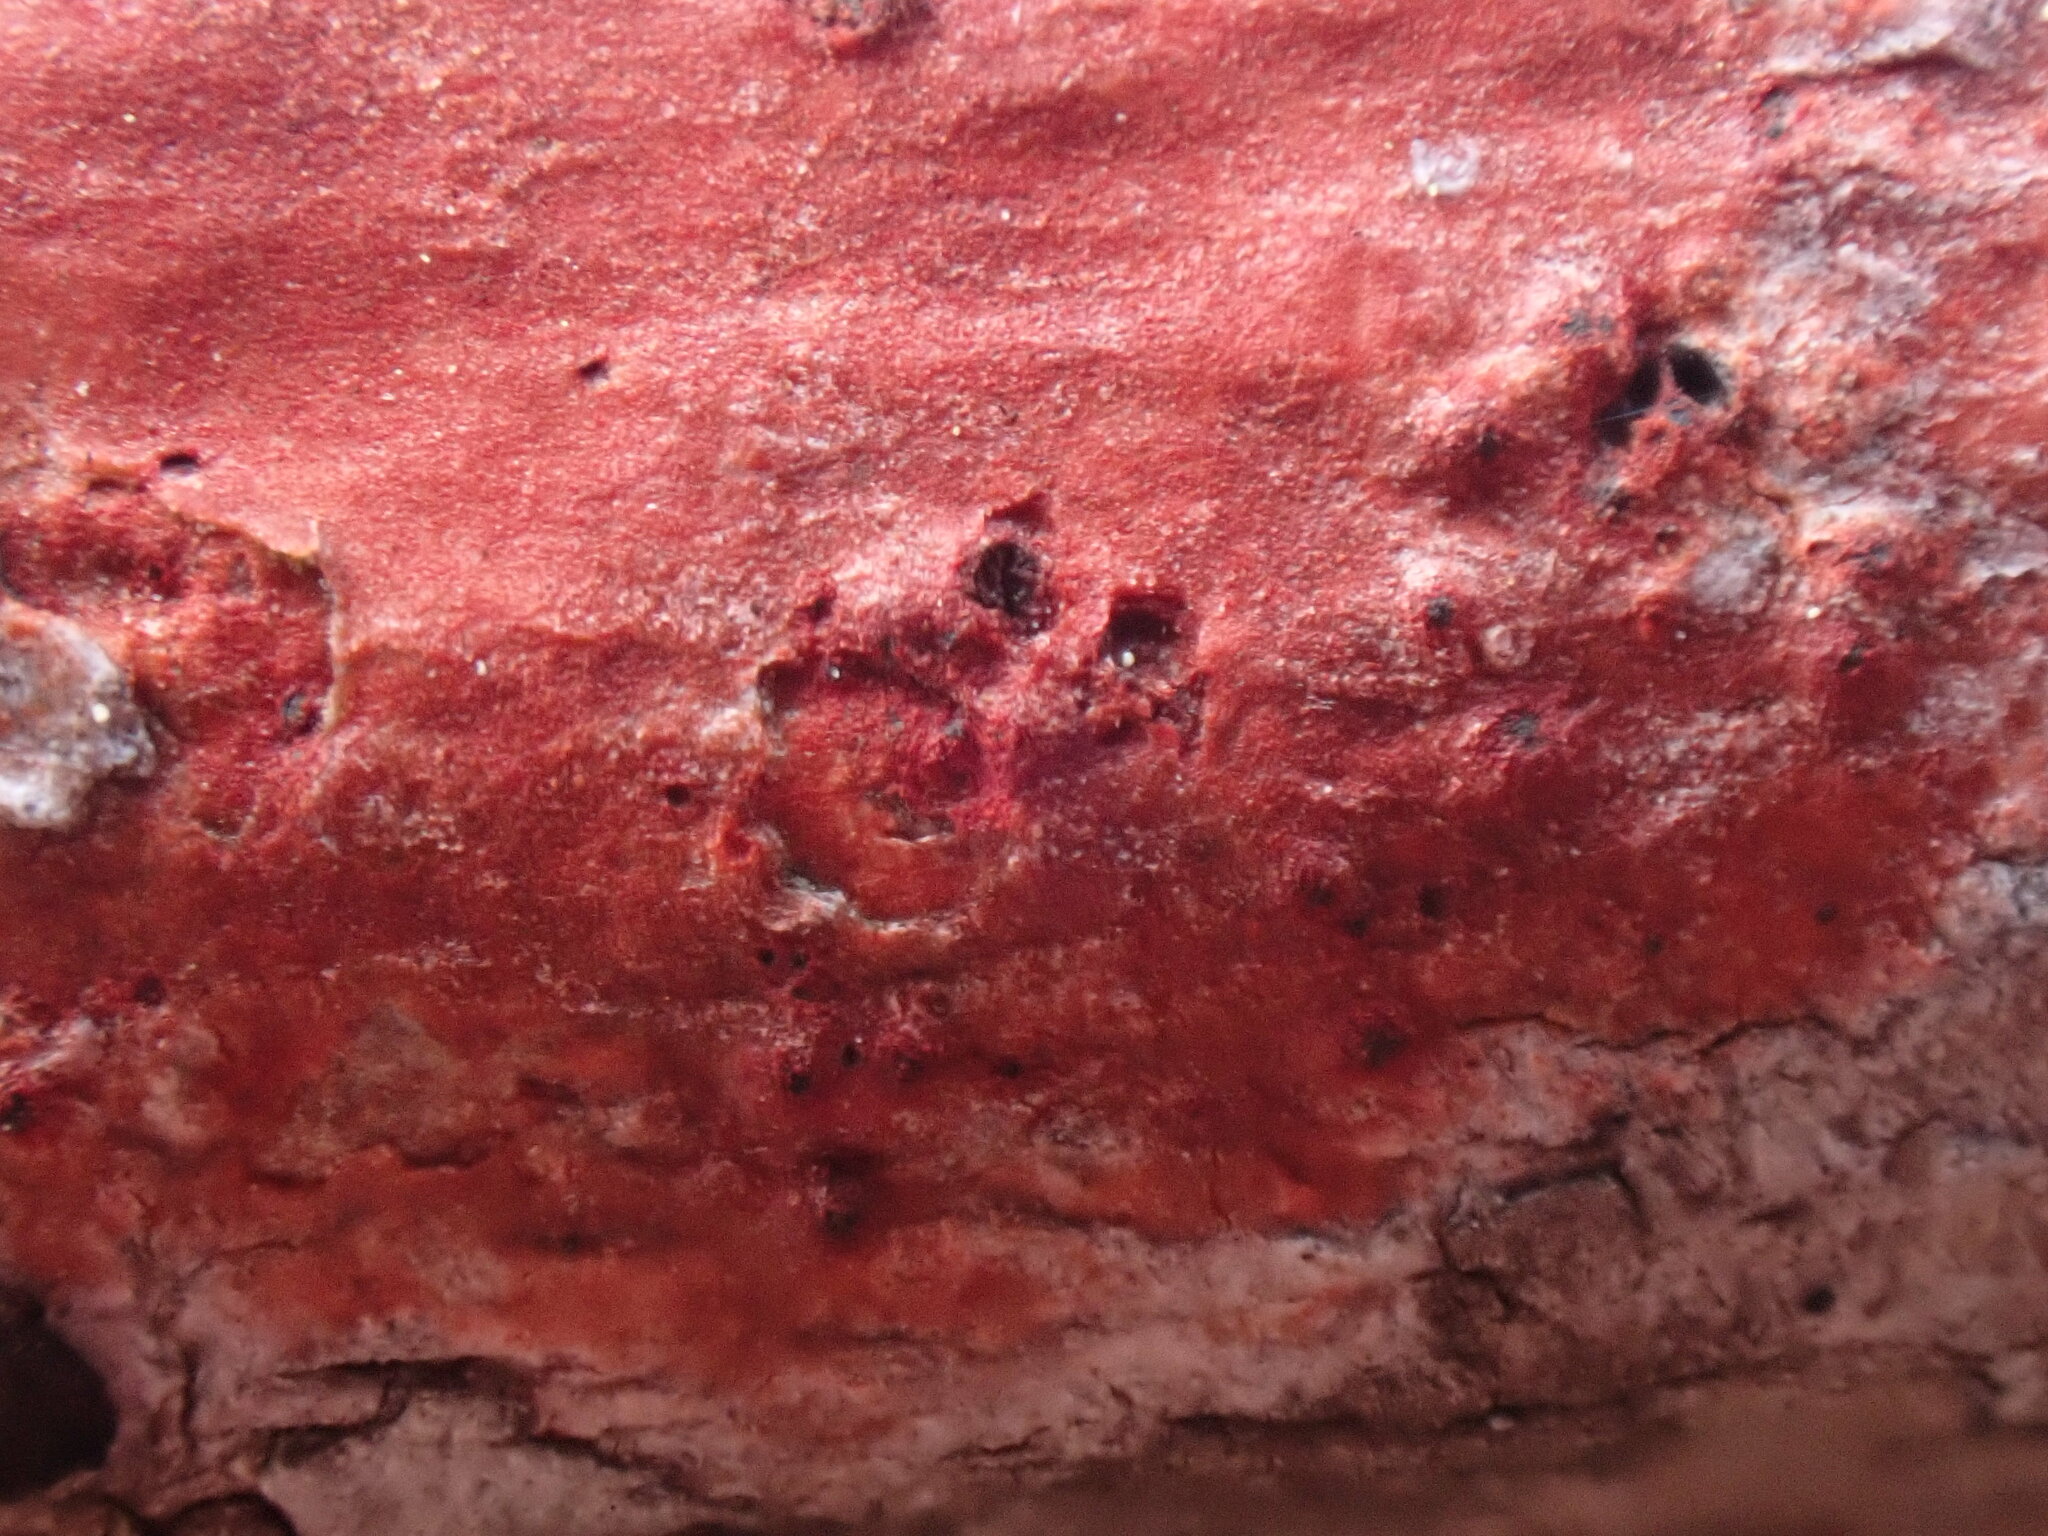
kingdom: Fungi
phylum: Ascomycota
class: Eurotiomycetes
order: Pyrenulales
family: Pyrenulaceae
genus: Pyrenula
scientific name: Pyrenula cruenta
